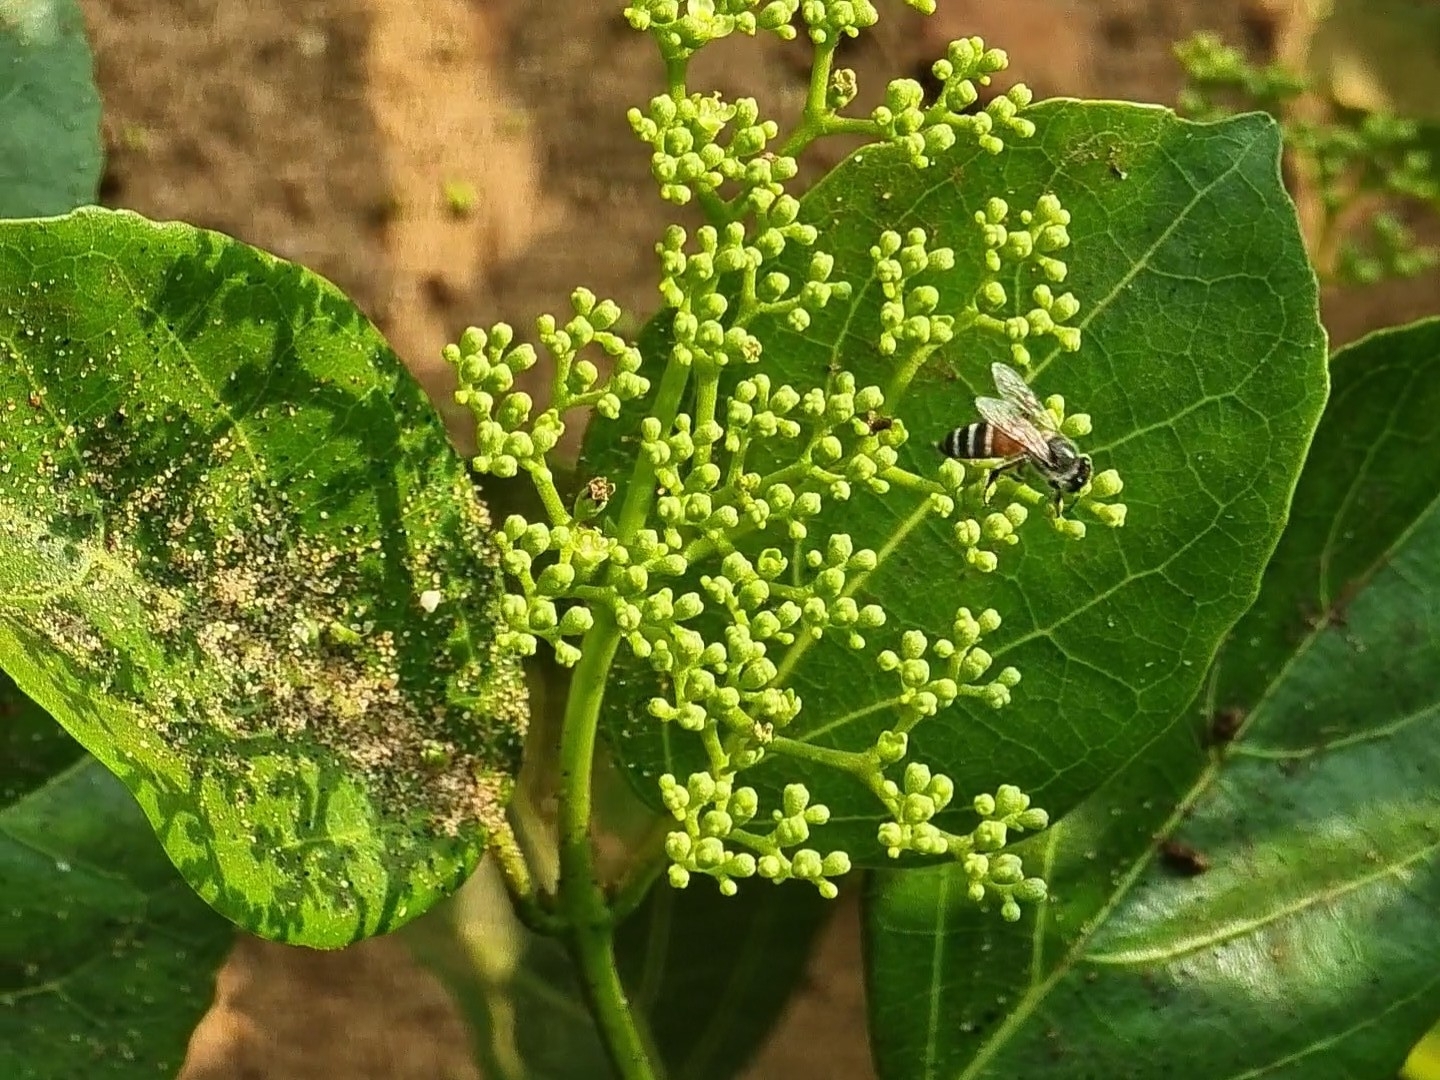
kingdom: Animalia
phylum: Arthropoda
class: Insecta
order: Hymenoptera
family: Apidae
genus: Apis
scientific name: Apis florea
